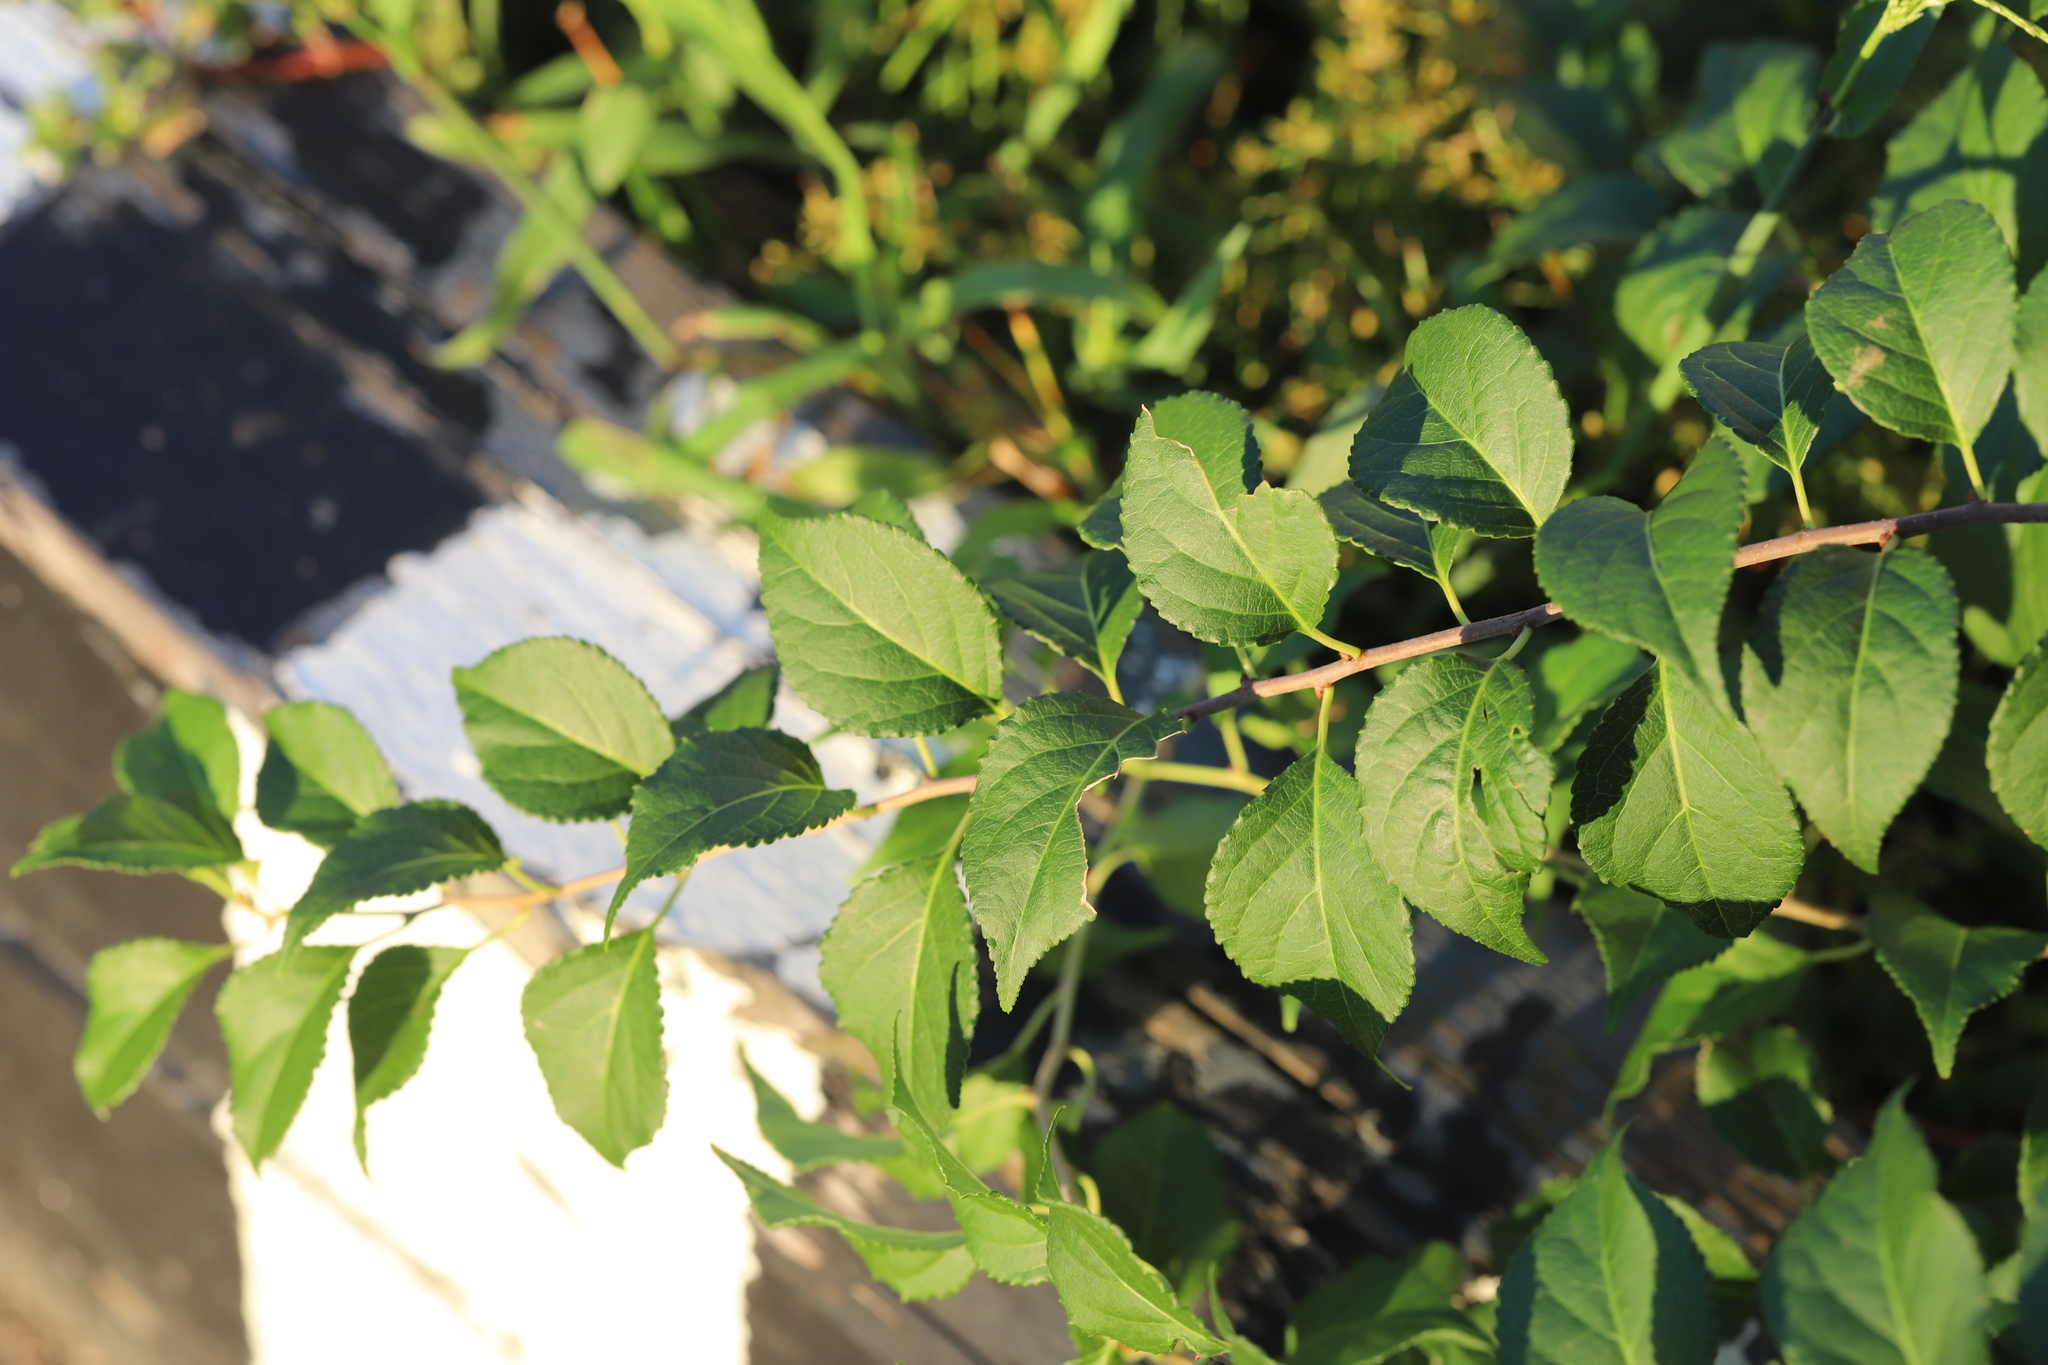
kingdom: Plantae
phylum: Tracheophyta
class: Magnoliopsida
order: Celastrales
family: Celastraceae
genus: Celastrus
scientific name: Celastrus orbiculatus
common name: Oriental bittersweet
